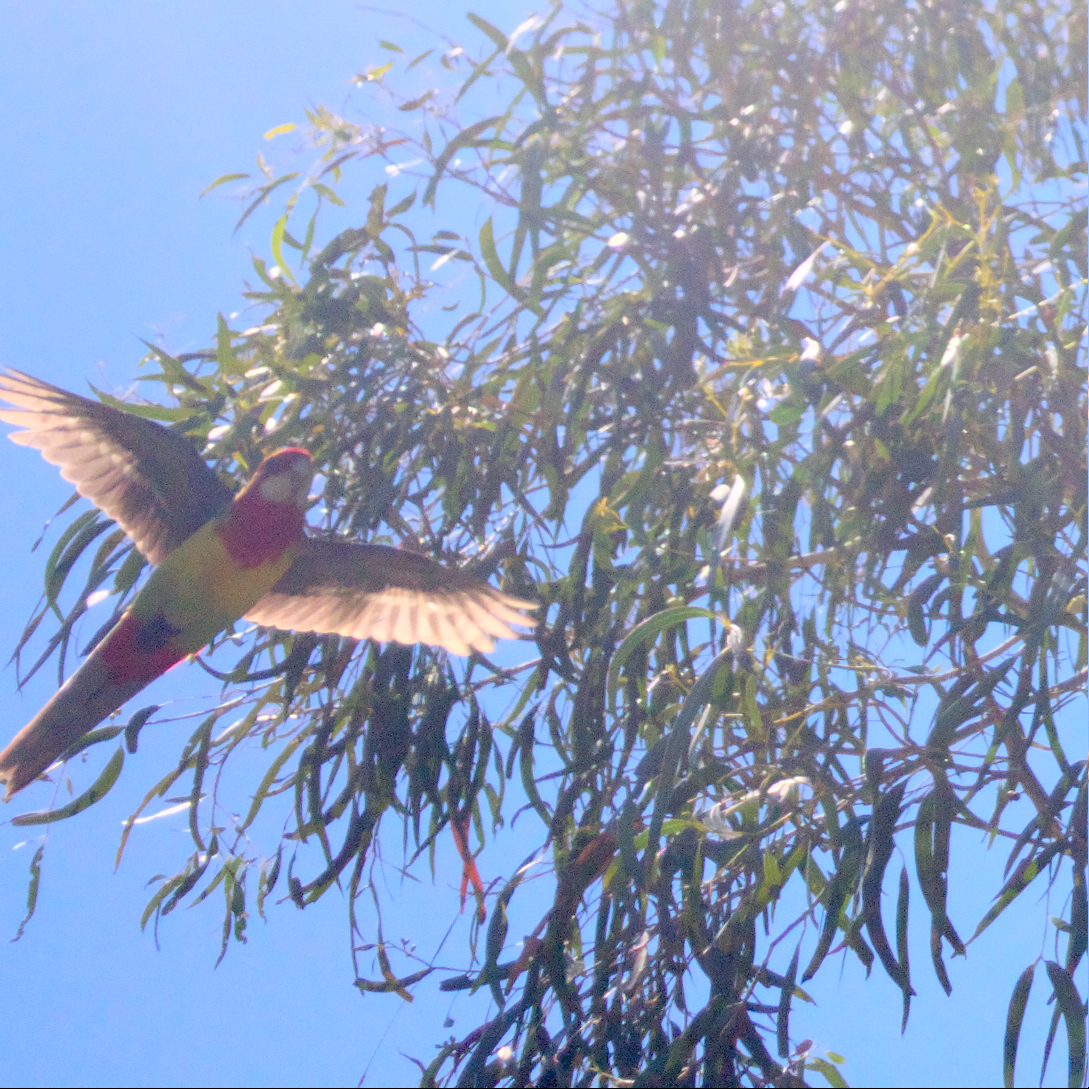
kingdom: Animalia
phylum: Chordata
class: Aves
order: Psittaciformes
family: Psittacidae
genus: Platycercus
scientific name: Platycercus eximius
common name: Eastern rosella
